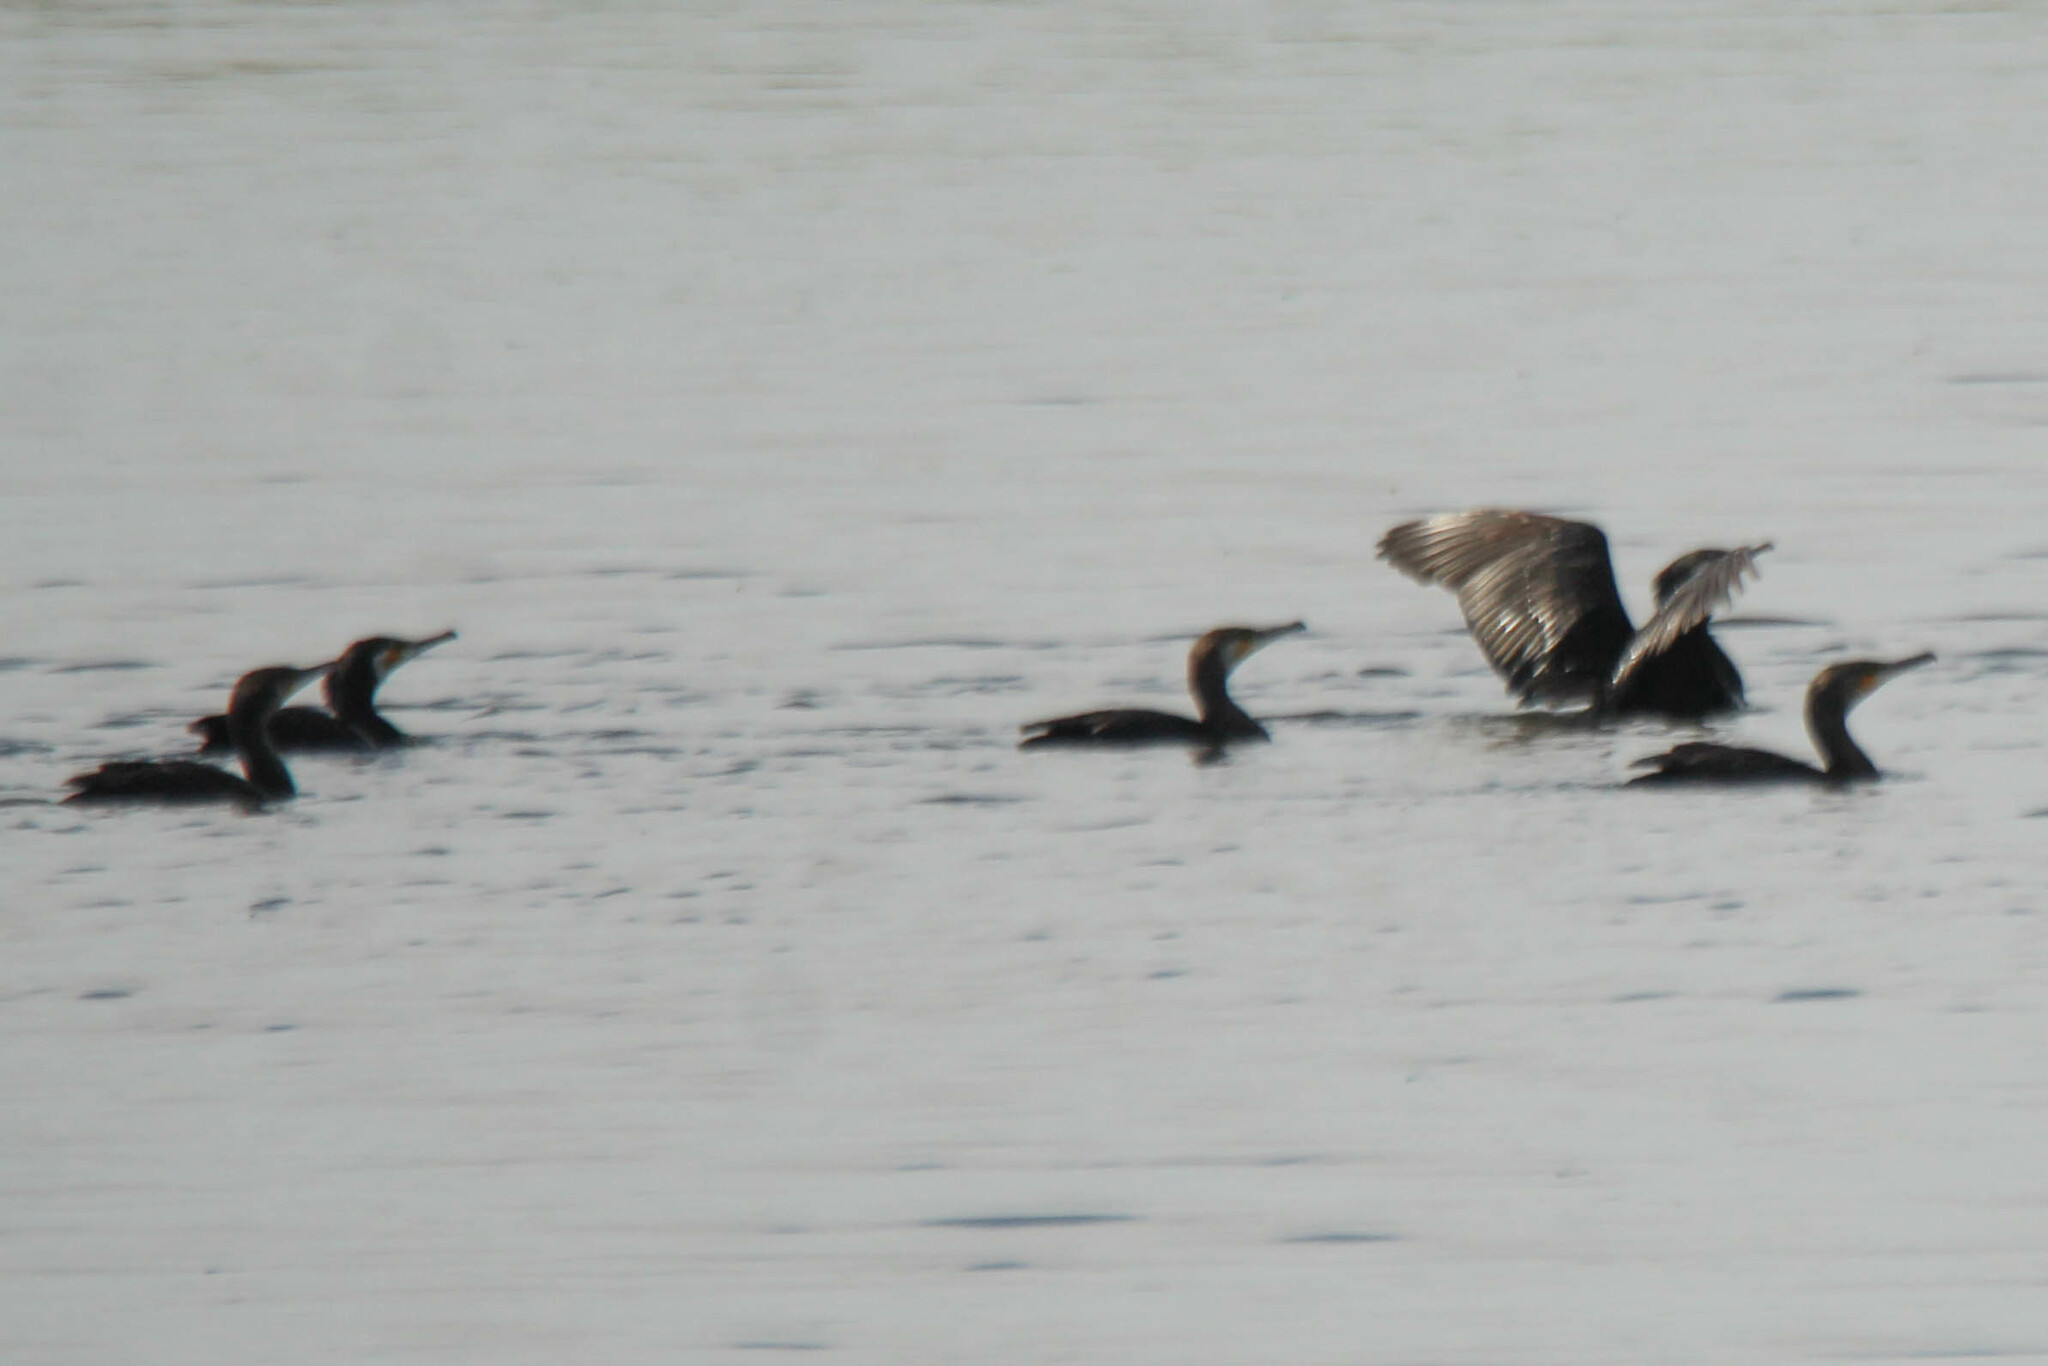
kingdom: Animalia
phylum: Chordata
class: Aves
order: Suliformes
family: Phalacrocoracidae
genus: Phalacrocorax
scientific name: Phalacrocorax carbo
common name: Great cormorant
